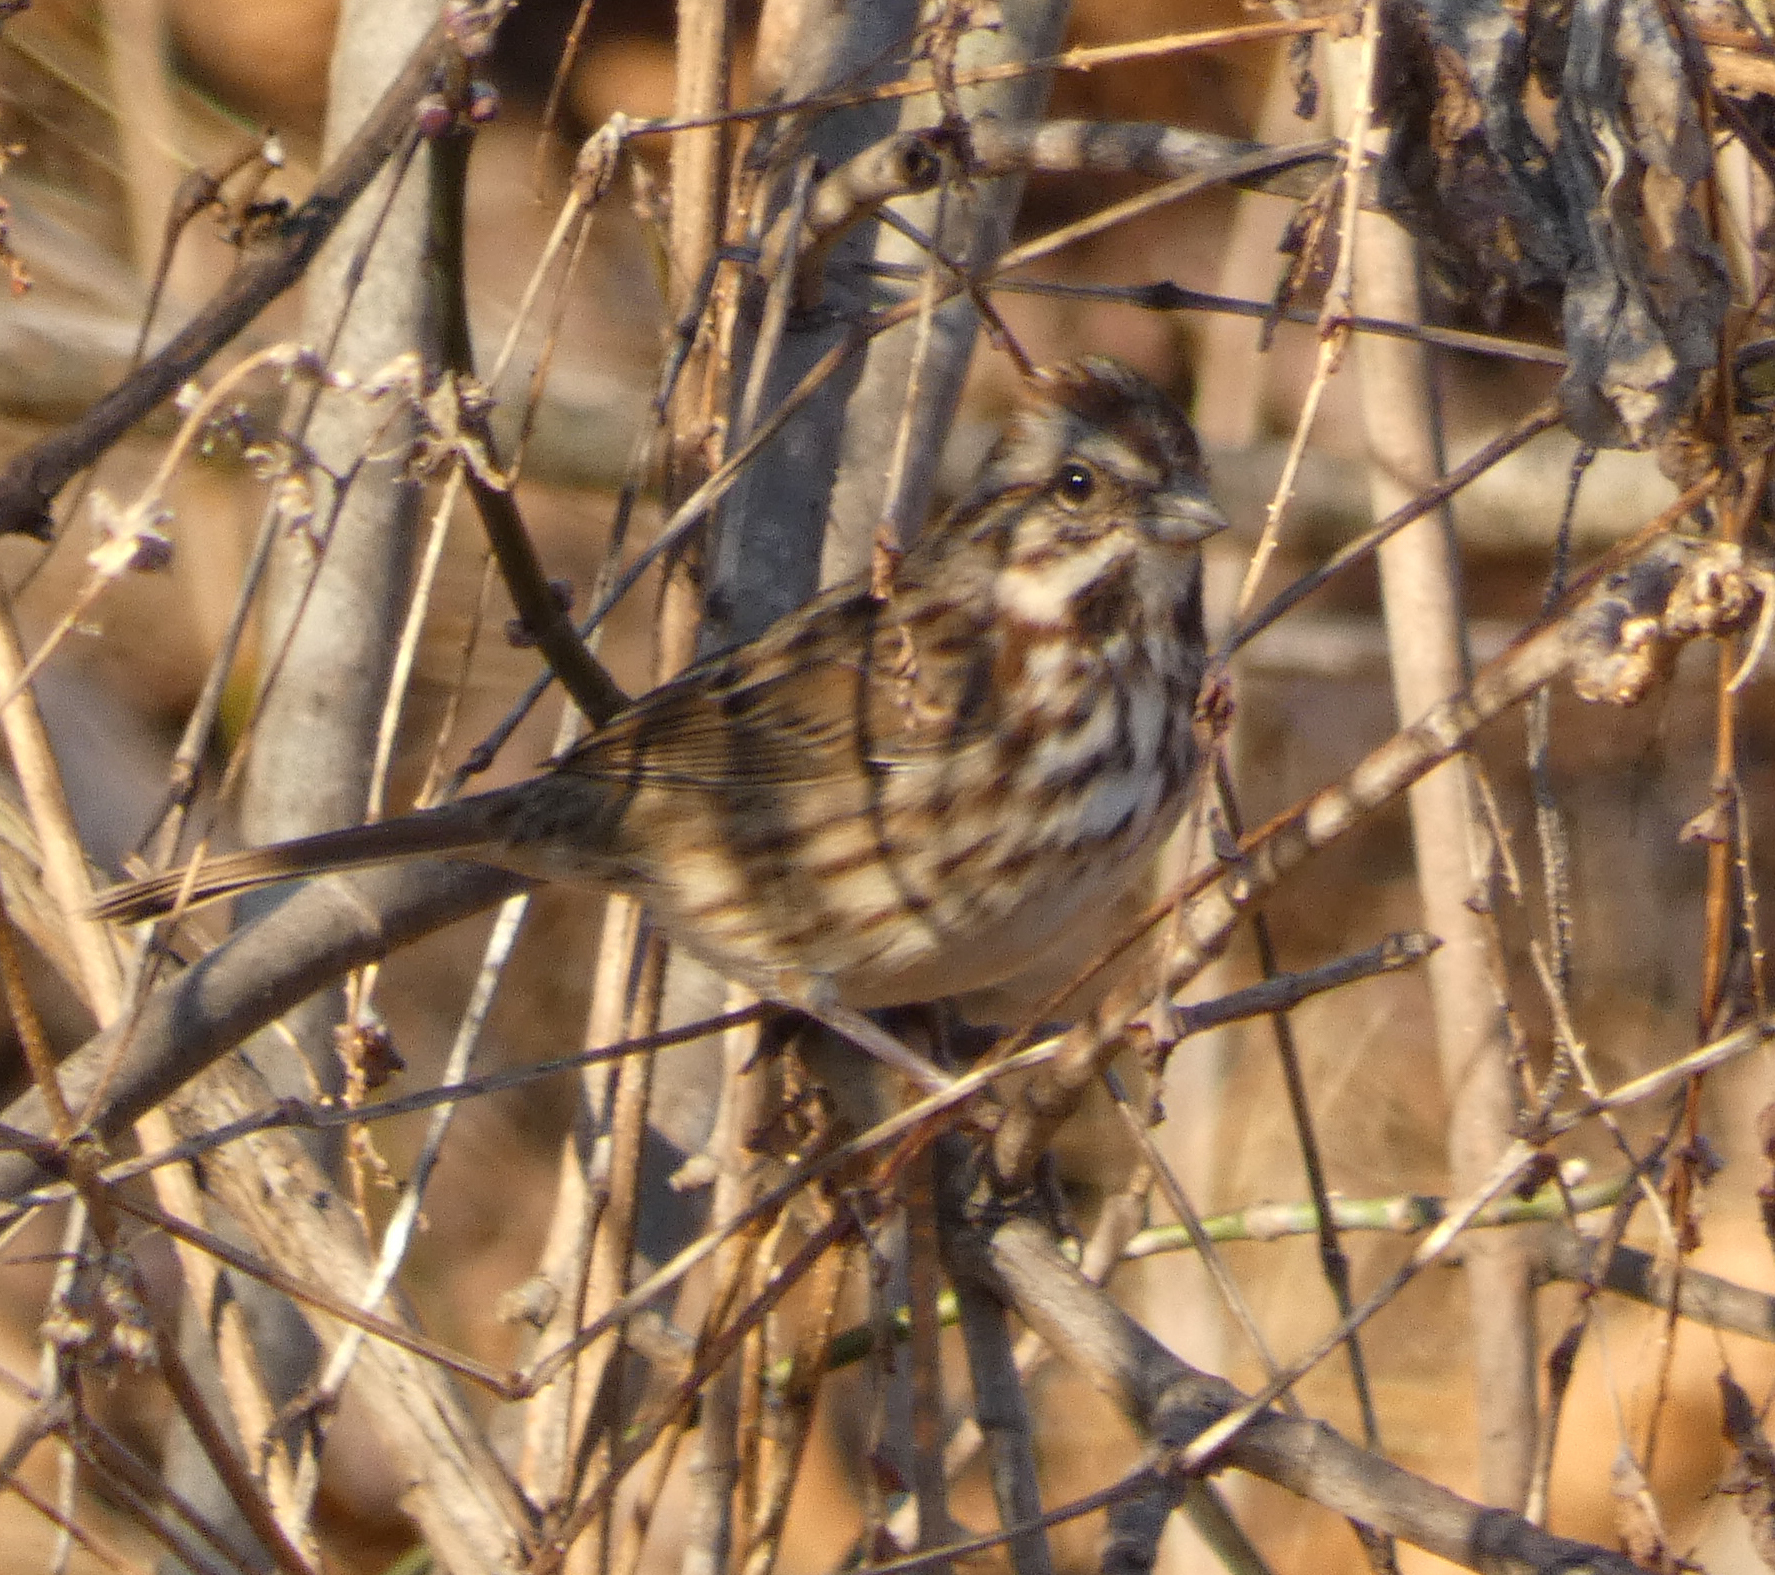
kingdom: Animalia
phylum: Chordata
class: Aves
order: Passeriformes
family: Passerellidae
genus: Melospiza
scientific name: Melospiza melodia
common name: Song sparrow
